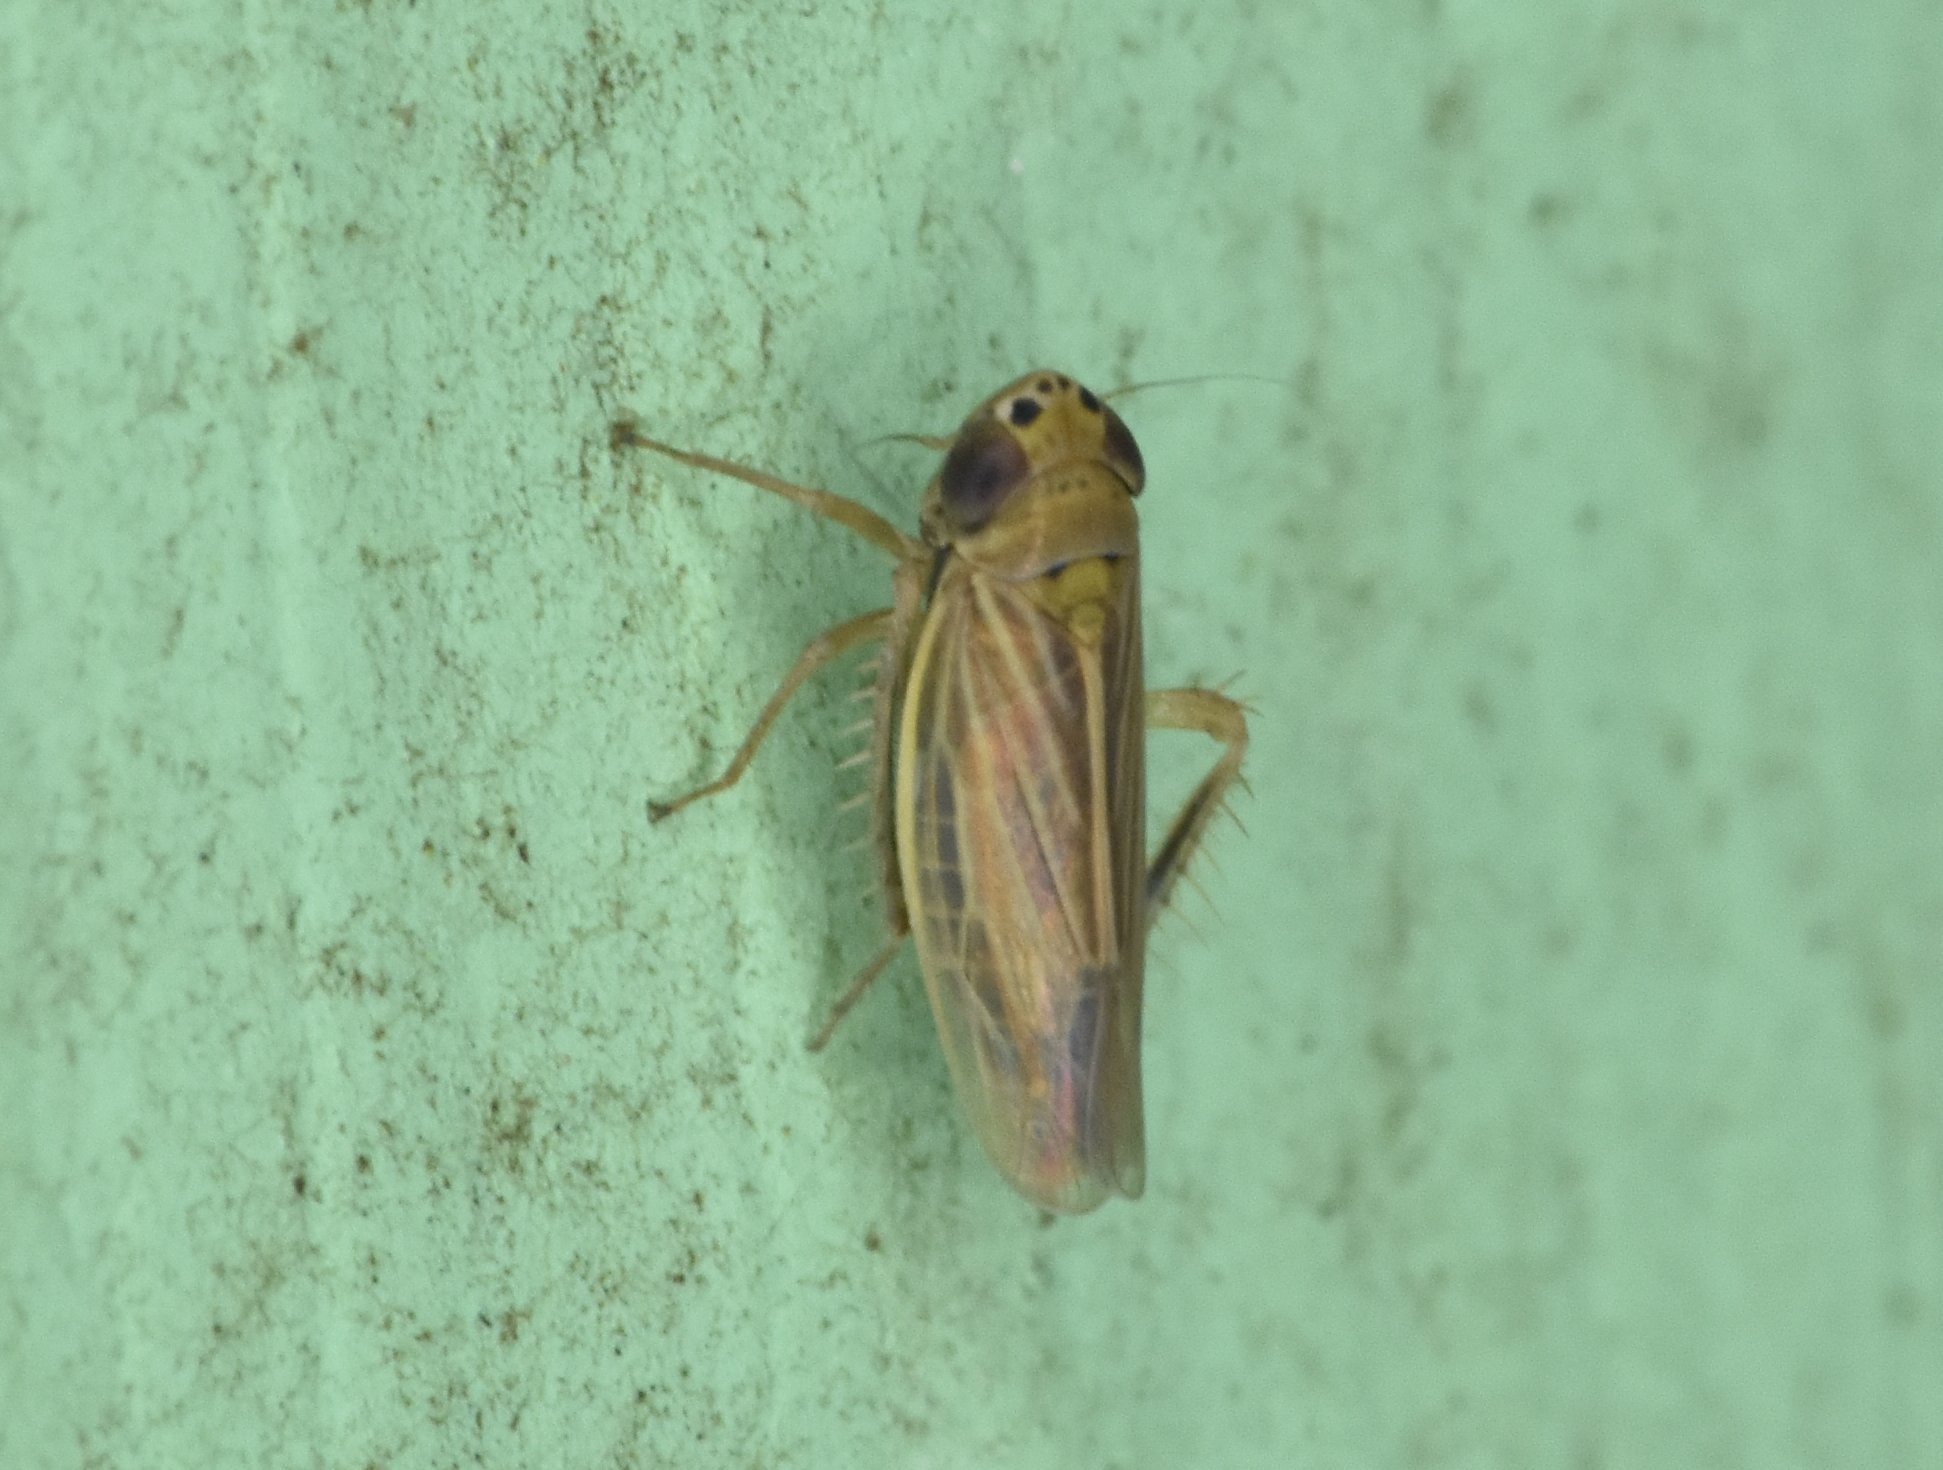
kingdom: Animalia
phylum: Arthropoda
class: Insecta
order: Hemiptera
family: Cicadellidae
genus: Graminella
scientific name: Graminella cognita
